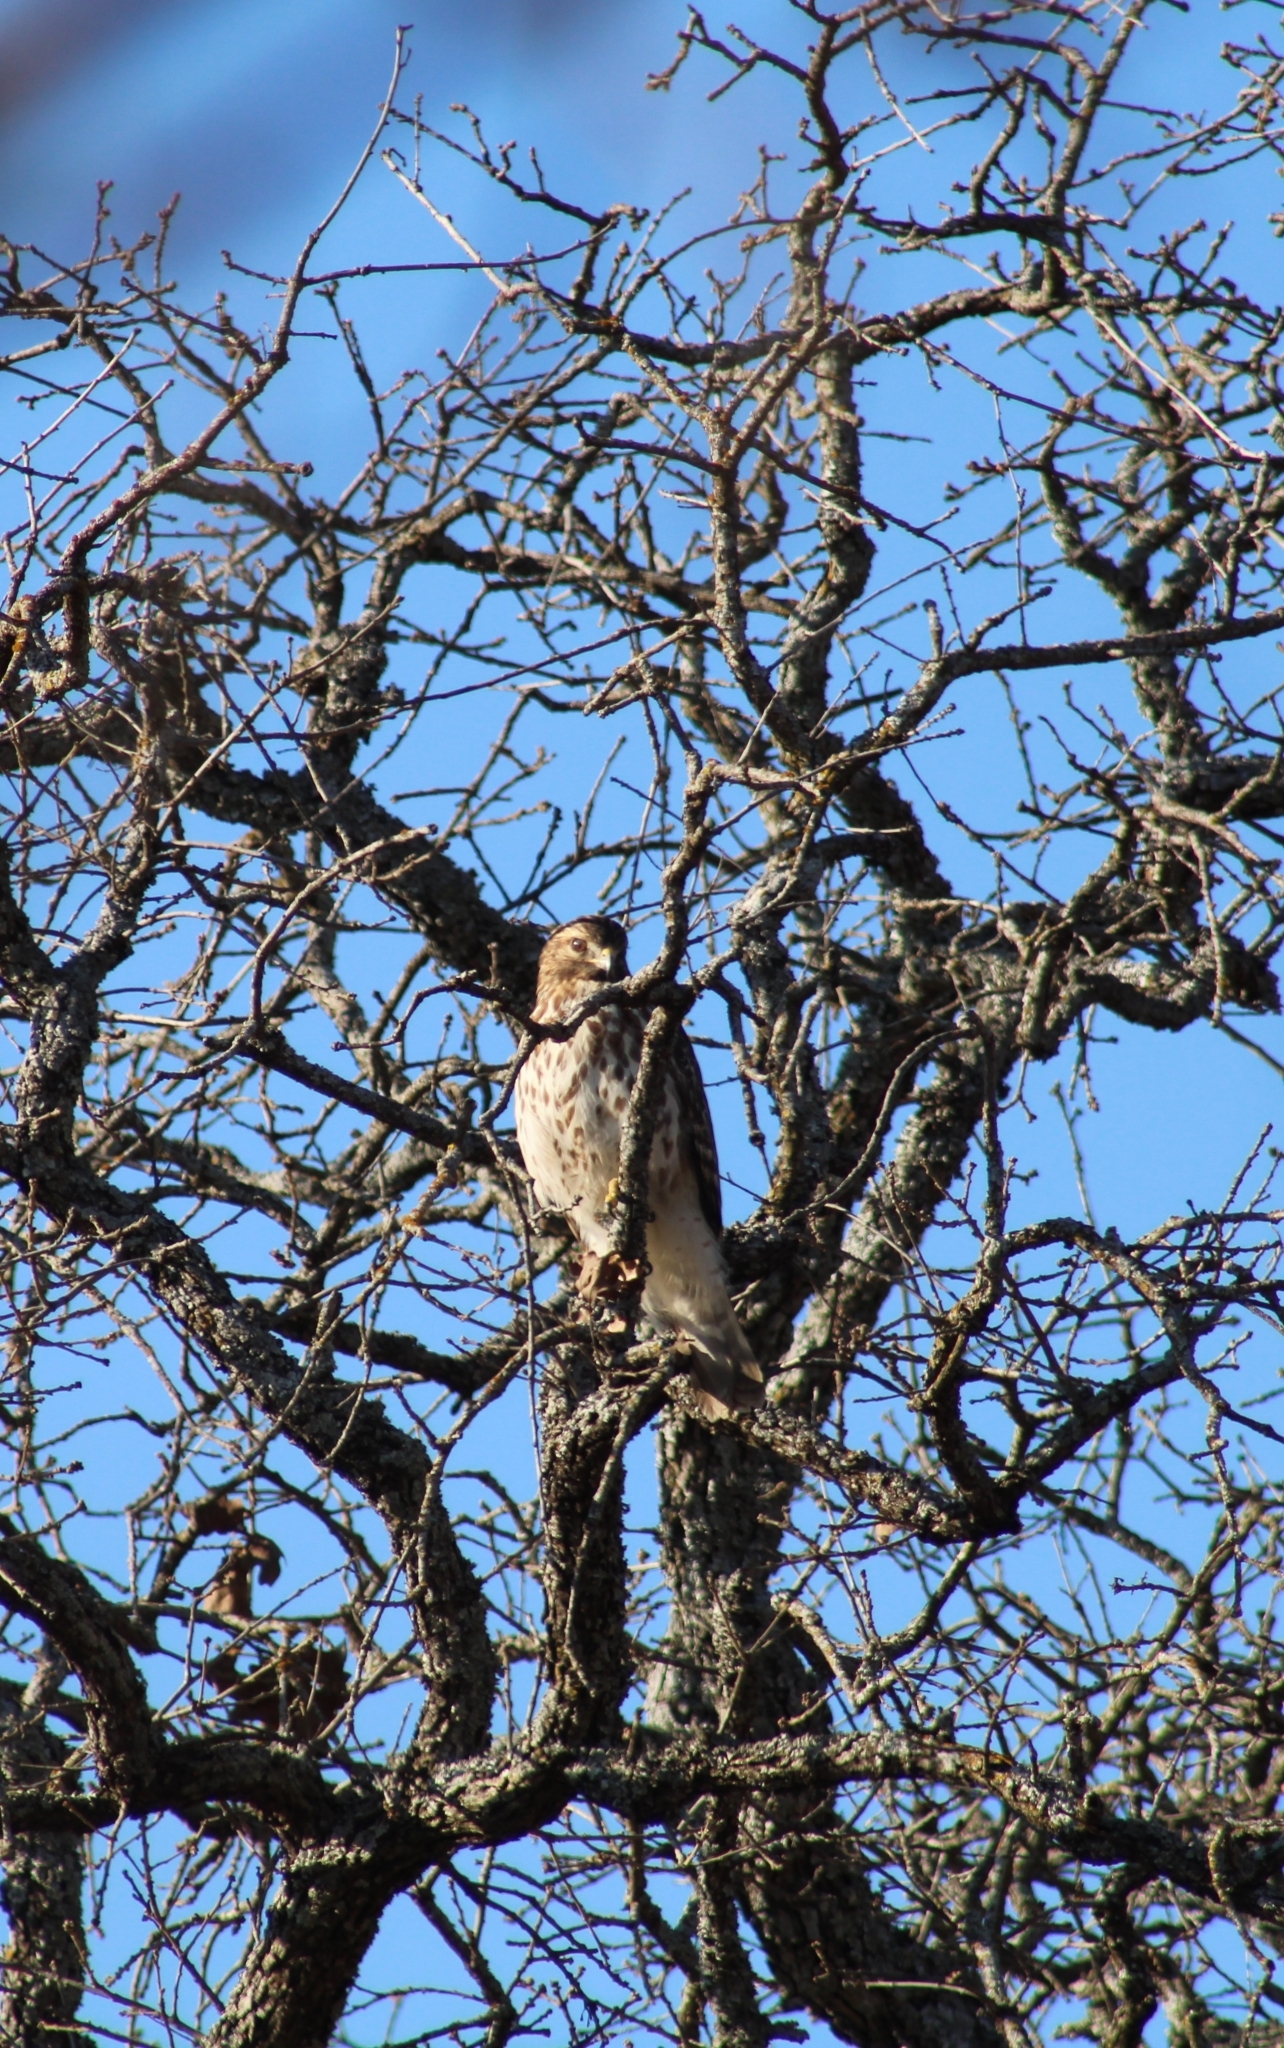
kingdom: Animalia
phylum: Chordata
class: Aves
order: Accipitriformes
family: Accipitridae
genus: Buteo
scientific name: Buteo lineatus
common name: Red-shouldered hawk
